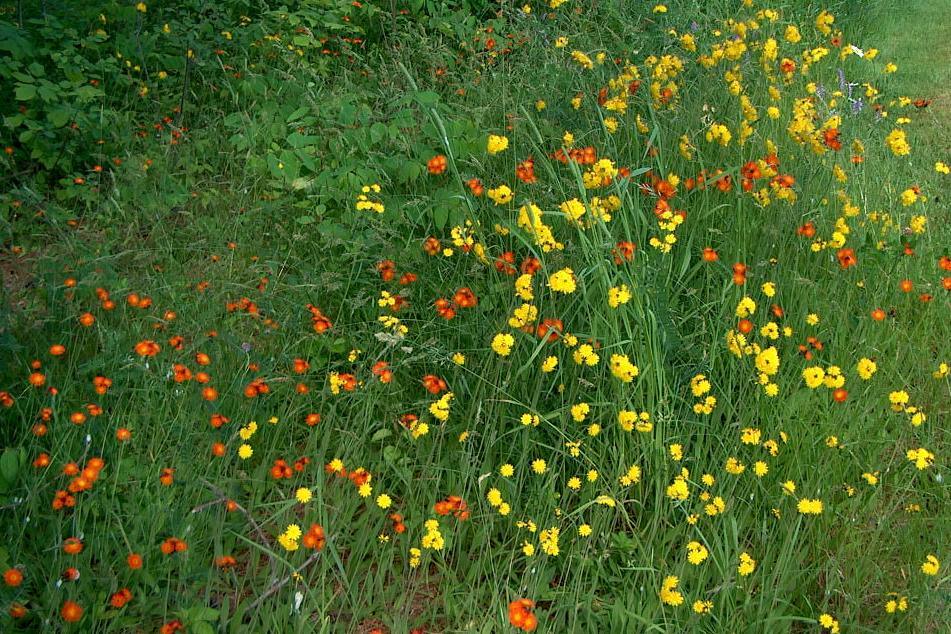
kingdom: Plantae
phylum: Tracheophyta
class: Magnoliopsida
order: Asterales
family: Asteraceae
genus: Pilosella
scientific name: Pilosella aurantiaca
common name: Fox-and-cubs
